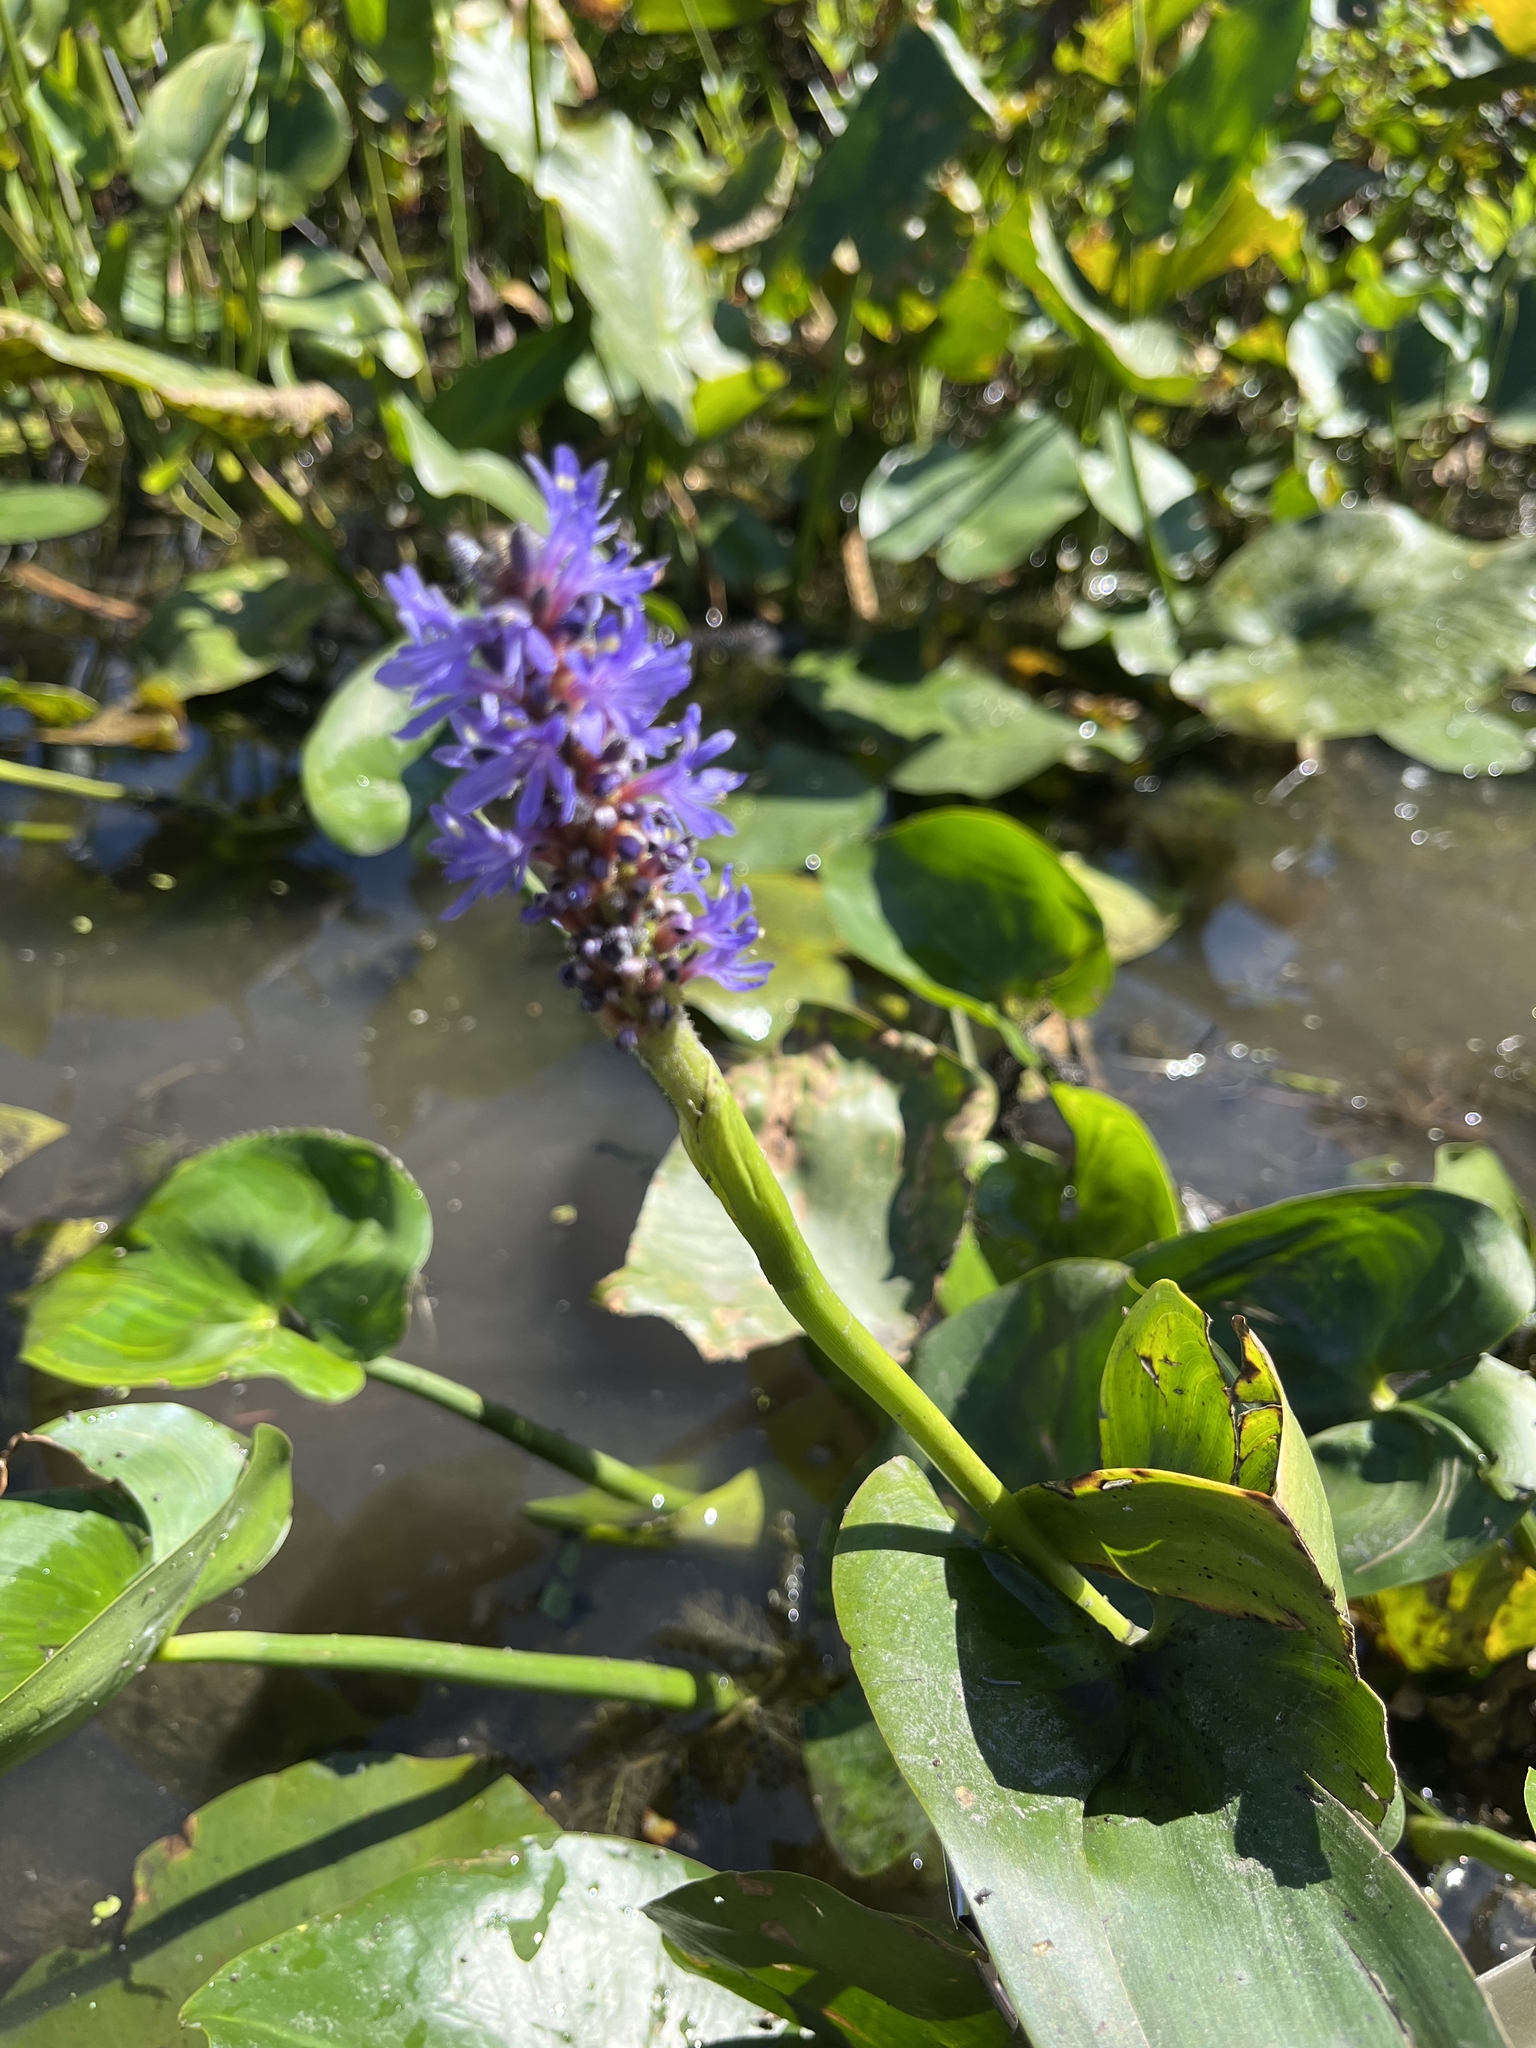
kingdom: Plantae
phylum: Tracheophyta
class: Liliopsida
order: Commelinales
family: Pontederiaceae
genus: Pontederia
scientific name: Pontederia cordata
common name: Pickerelweed
